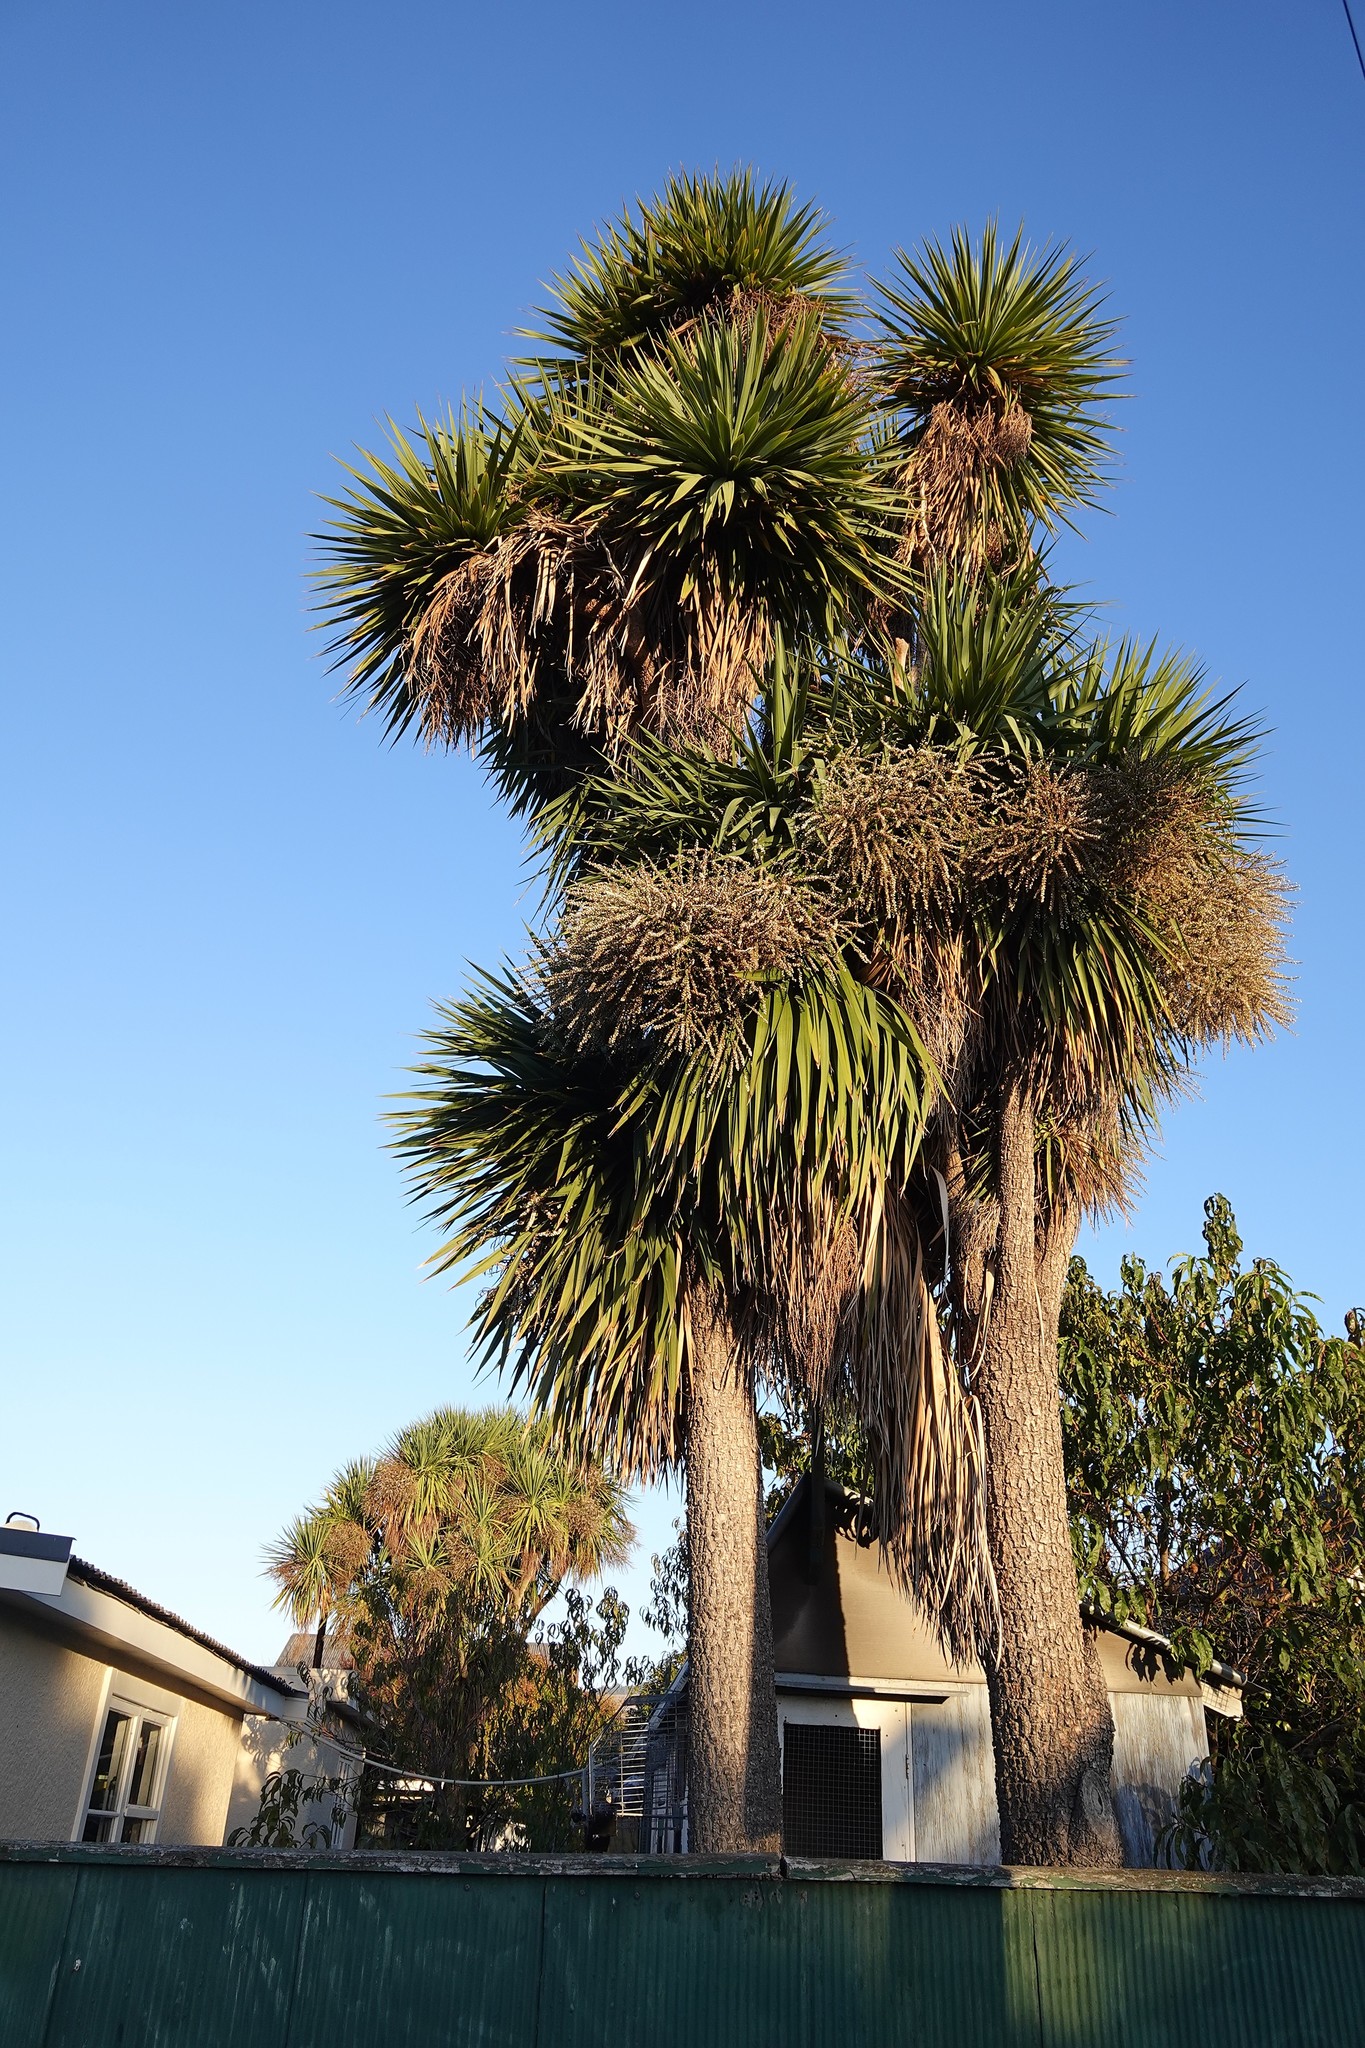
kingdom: Plantae
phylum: Tracheophyta
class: Liliopsida
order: Asparagales
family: Asparagaceae
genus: Cordyline
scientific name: Cordyline australis
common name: Cabbage-palm
